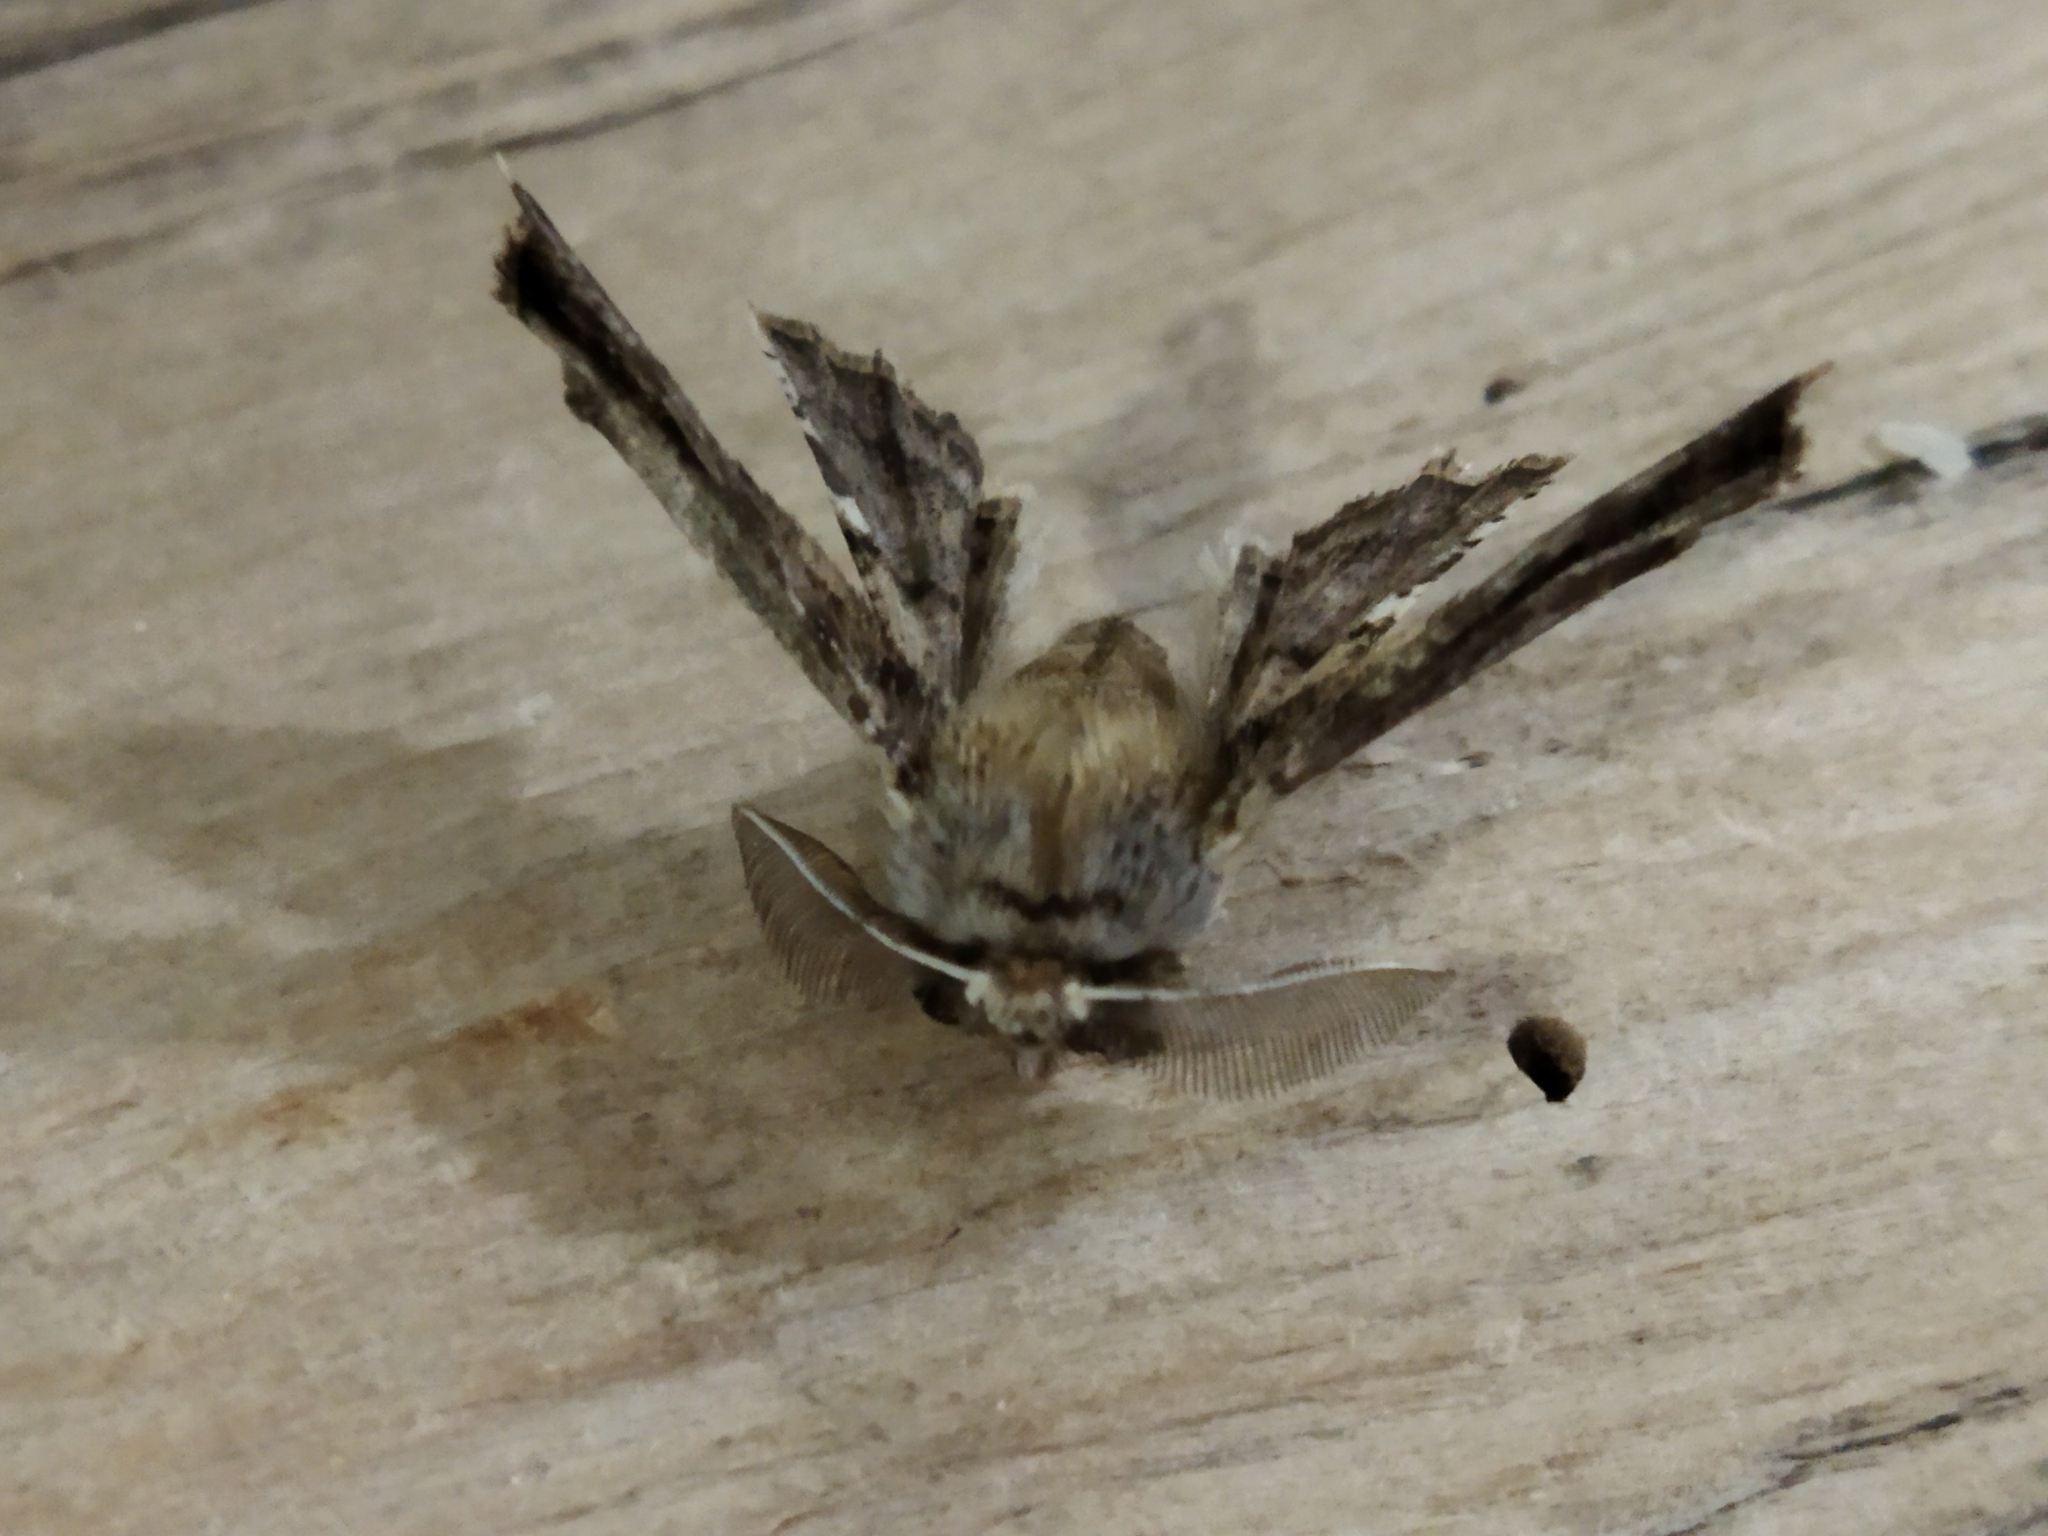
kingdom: Animalia
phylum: Arthropoda
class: Insecta
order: Lepidoptera
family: Geometridae
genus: Apochima
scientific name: Apochima flabellaria
